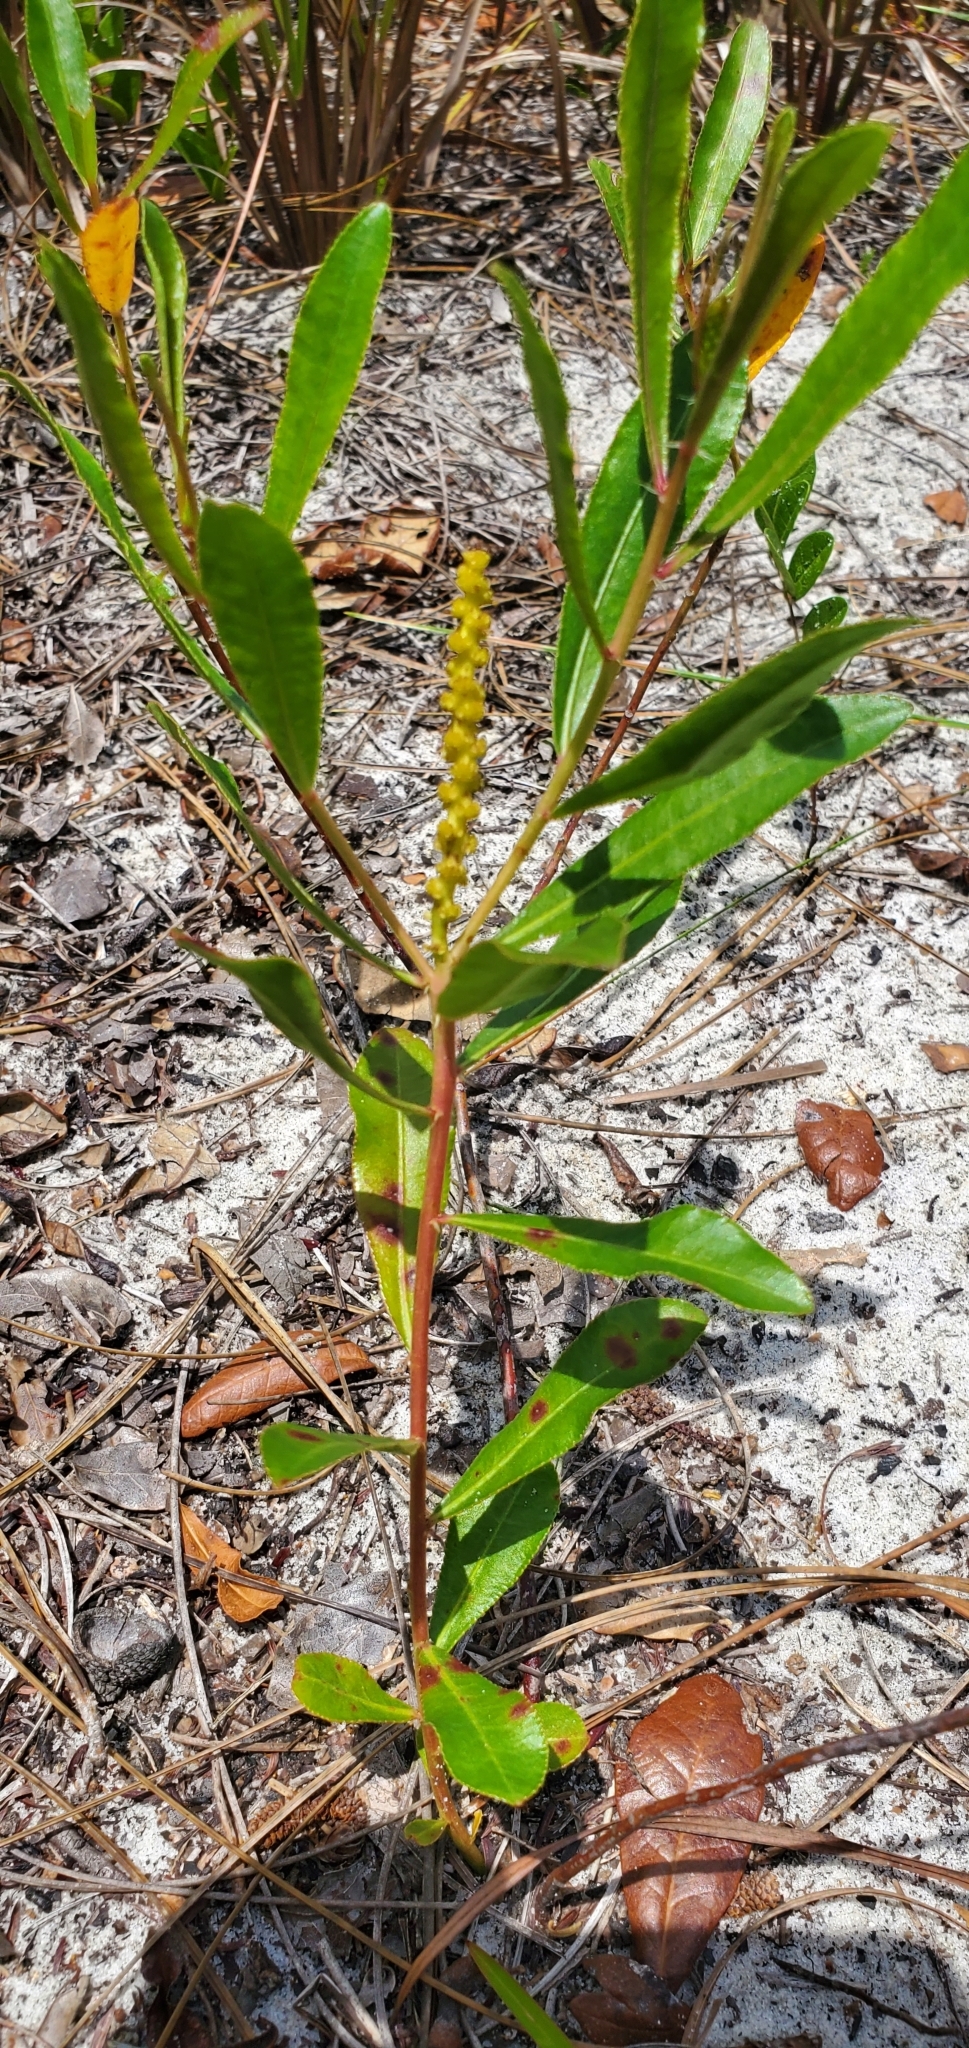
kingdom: Plantae
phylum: Tracheophyta
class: Magnoliopsida
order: Malpighiales
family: Euphorbiaceae
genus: Stillingia
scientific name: Stillingia sylvatica
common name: Queen's-delight
